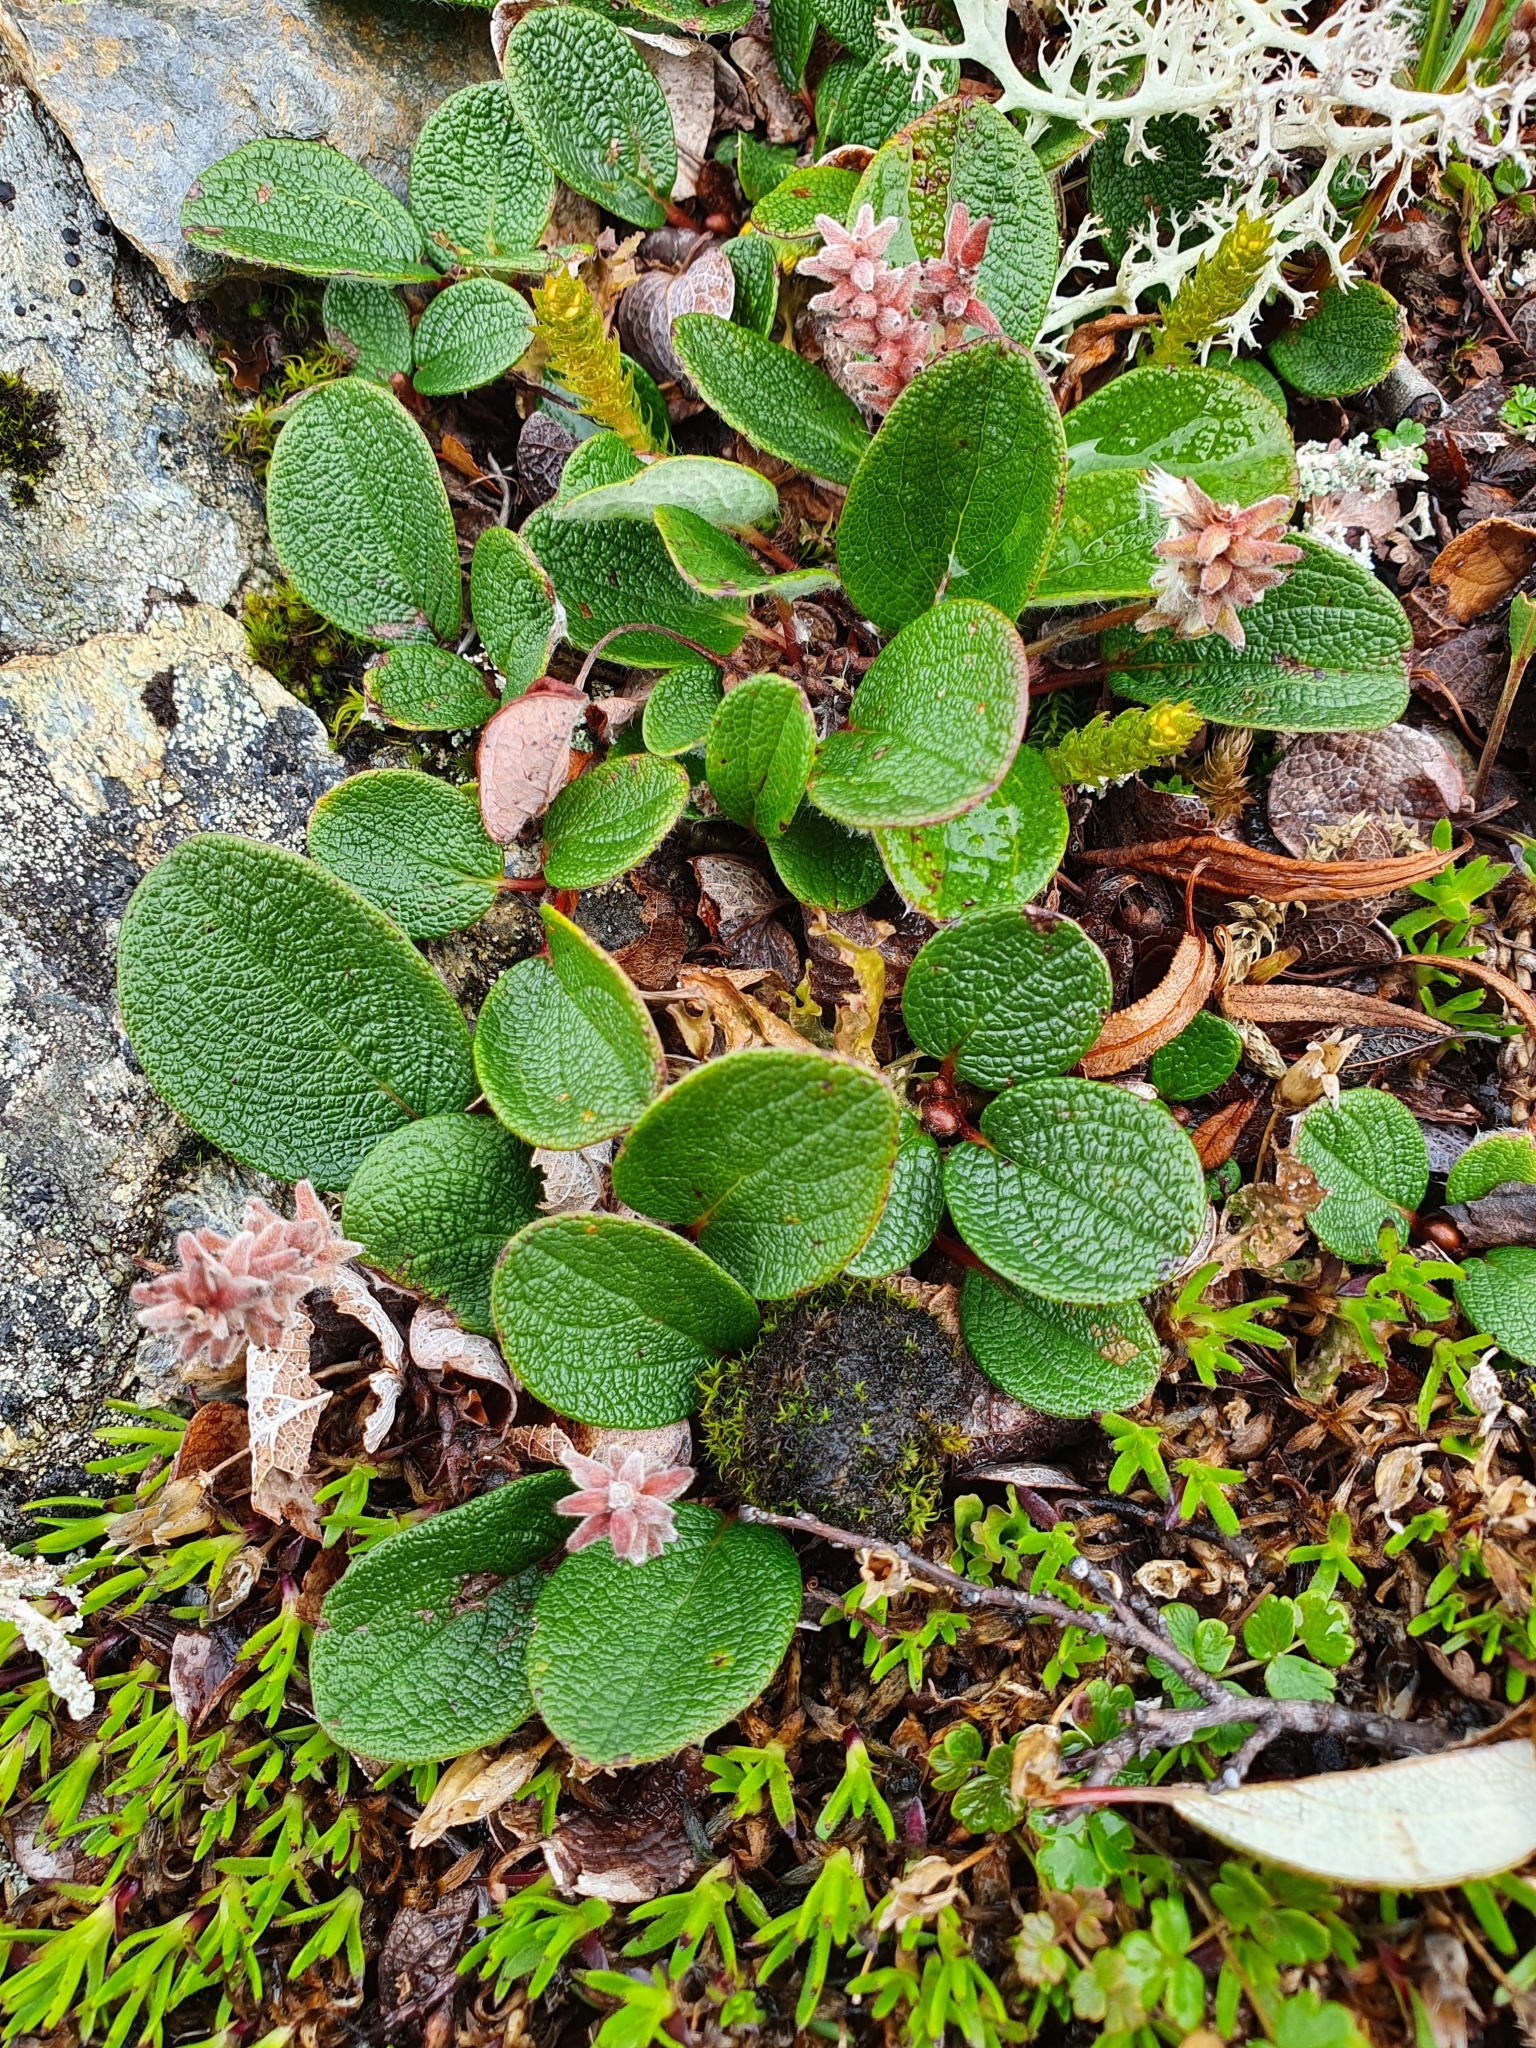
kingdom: Plantae
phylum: Tracheophyta
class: Magnoliopsida
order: Malpighiales
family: Salicaceae
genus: Salix
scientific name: Salix reticulata
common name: Net-leaved willow
